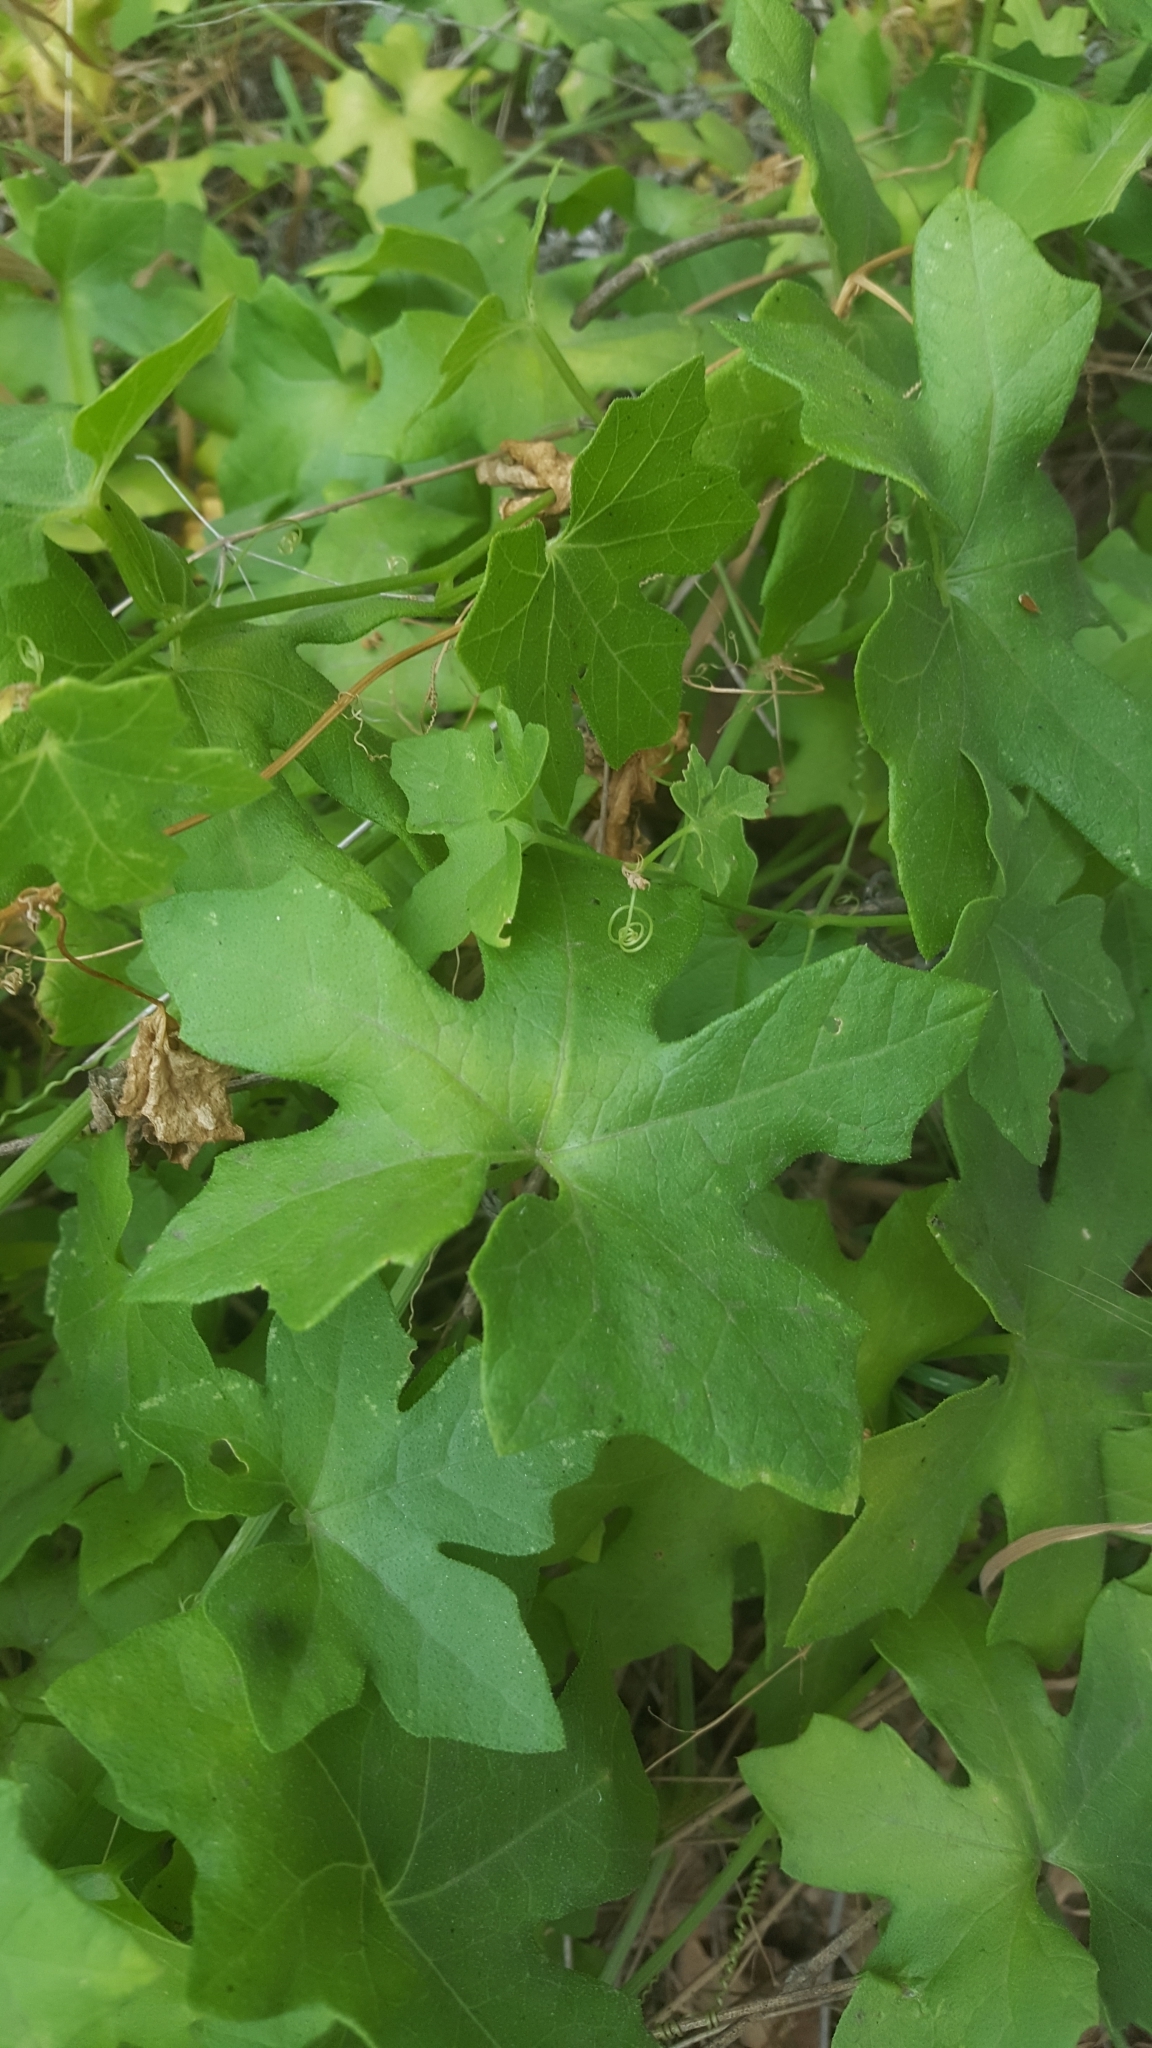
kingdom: Plantae
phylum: Tracheophyta
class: Magnoliopsida
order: Cucurbitales
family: Cucurbitaceae
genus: Marah
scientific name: Marah macrocarpa
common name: Cucamonga manroot
